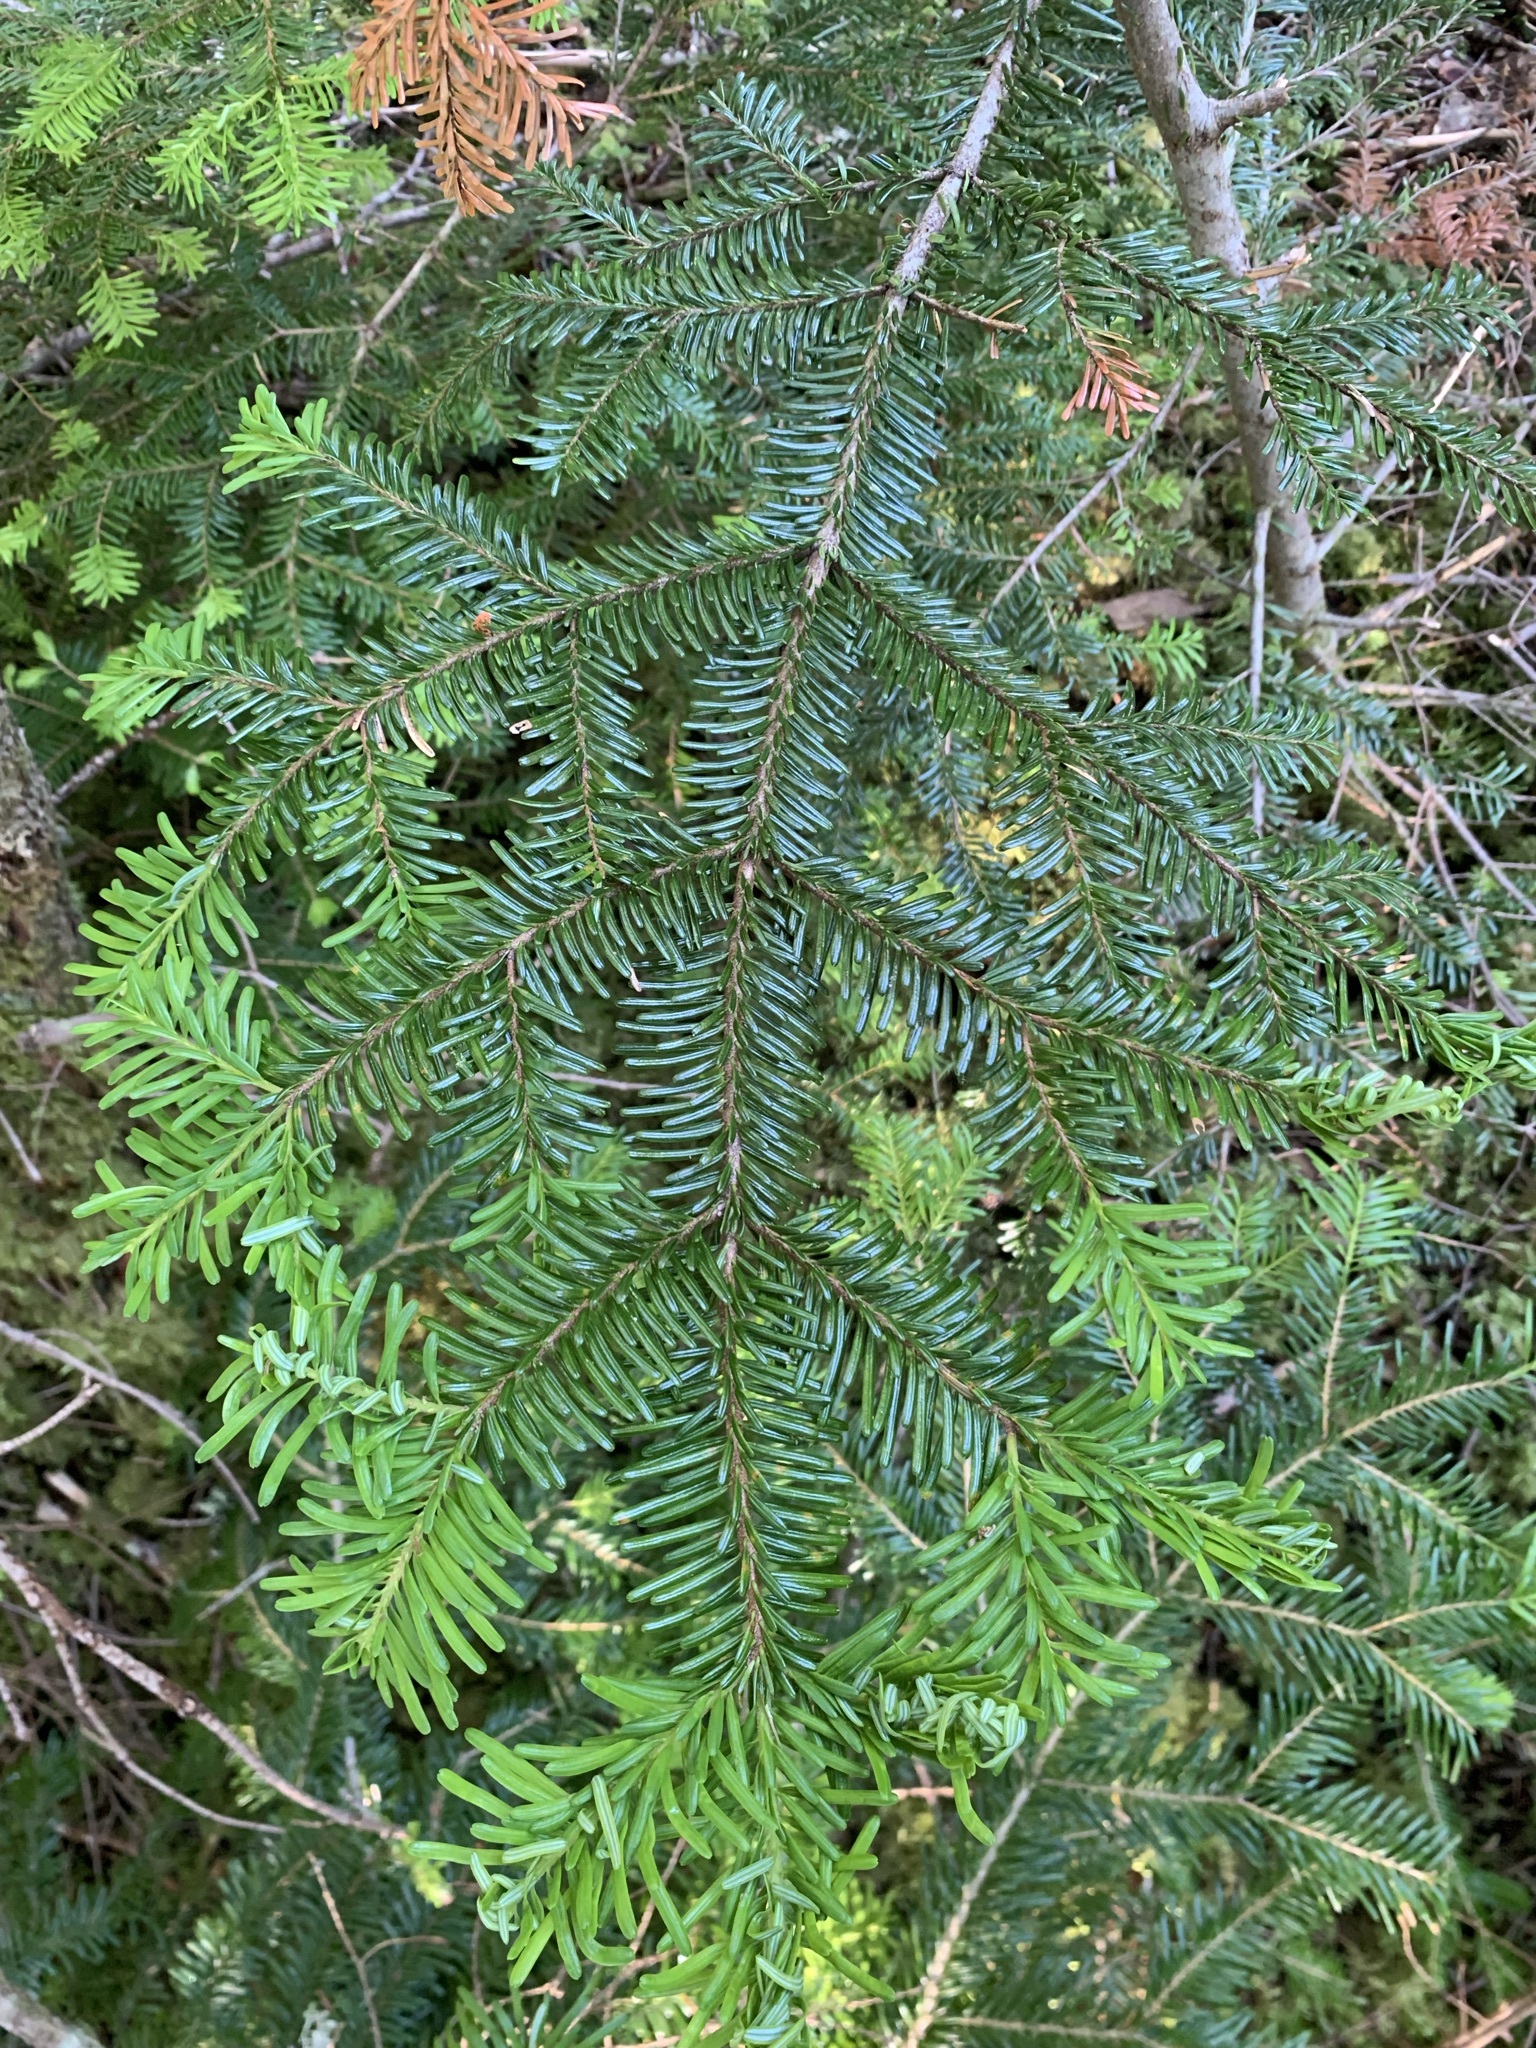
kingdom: Plantae
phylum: Tracheophyta
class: Pinopsida
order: Pinales
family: Pinaceae
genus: Abies
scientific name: Abies mariesii
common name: Marie's fir
